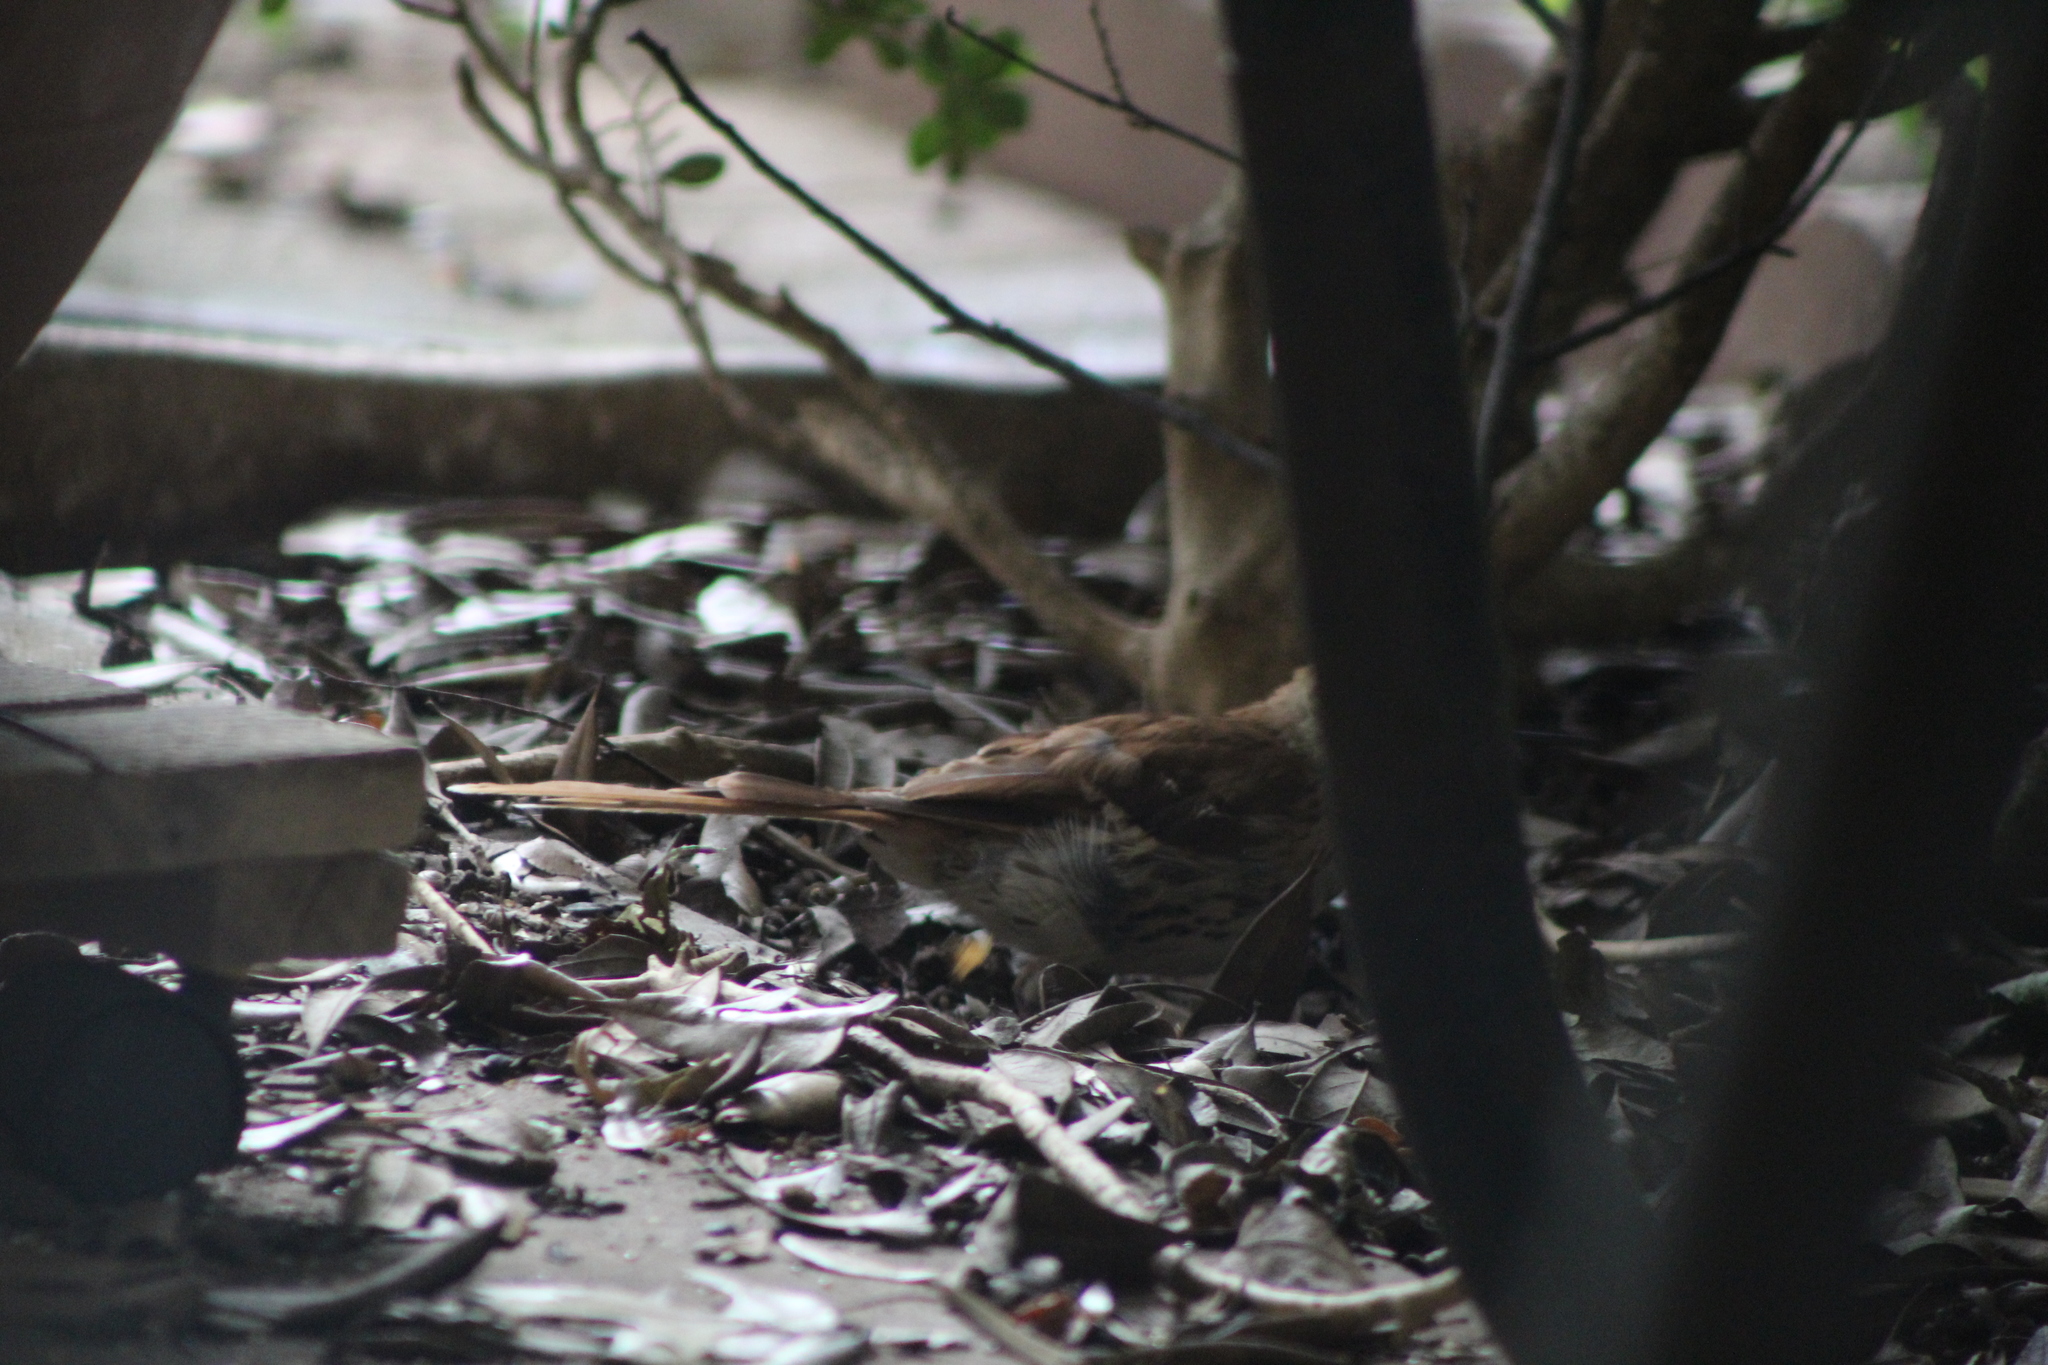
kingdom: Animalia
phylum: Chordata
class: Aves
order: Passeriformes
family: Mimidae
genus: Toxostoma
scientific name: Toxostoma rufum
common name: Brown thrasher
